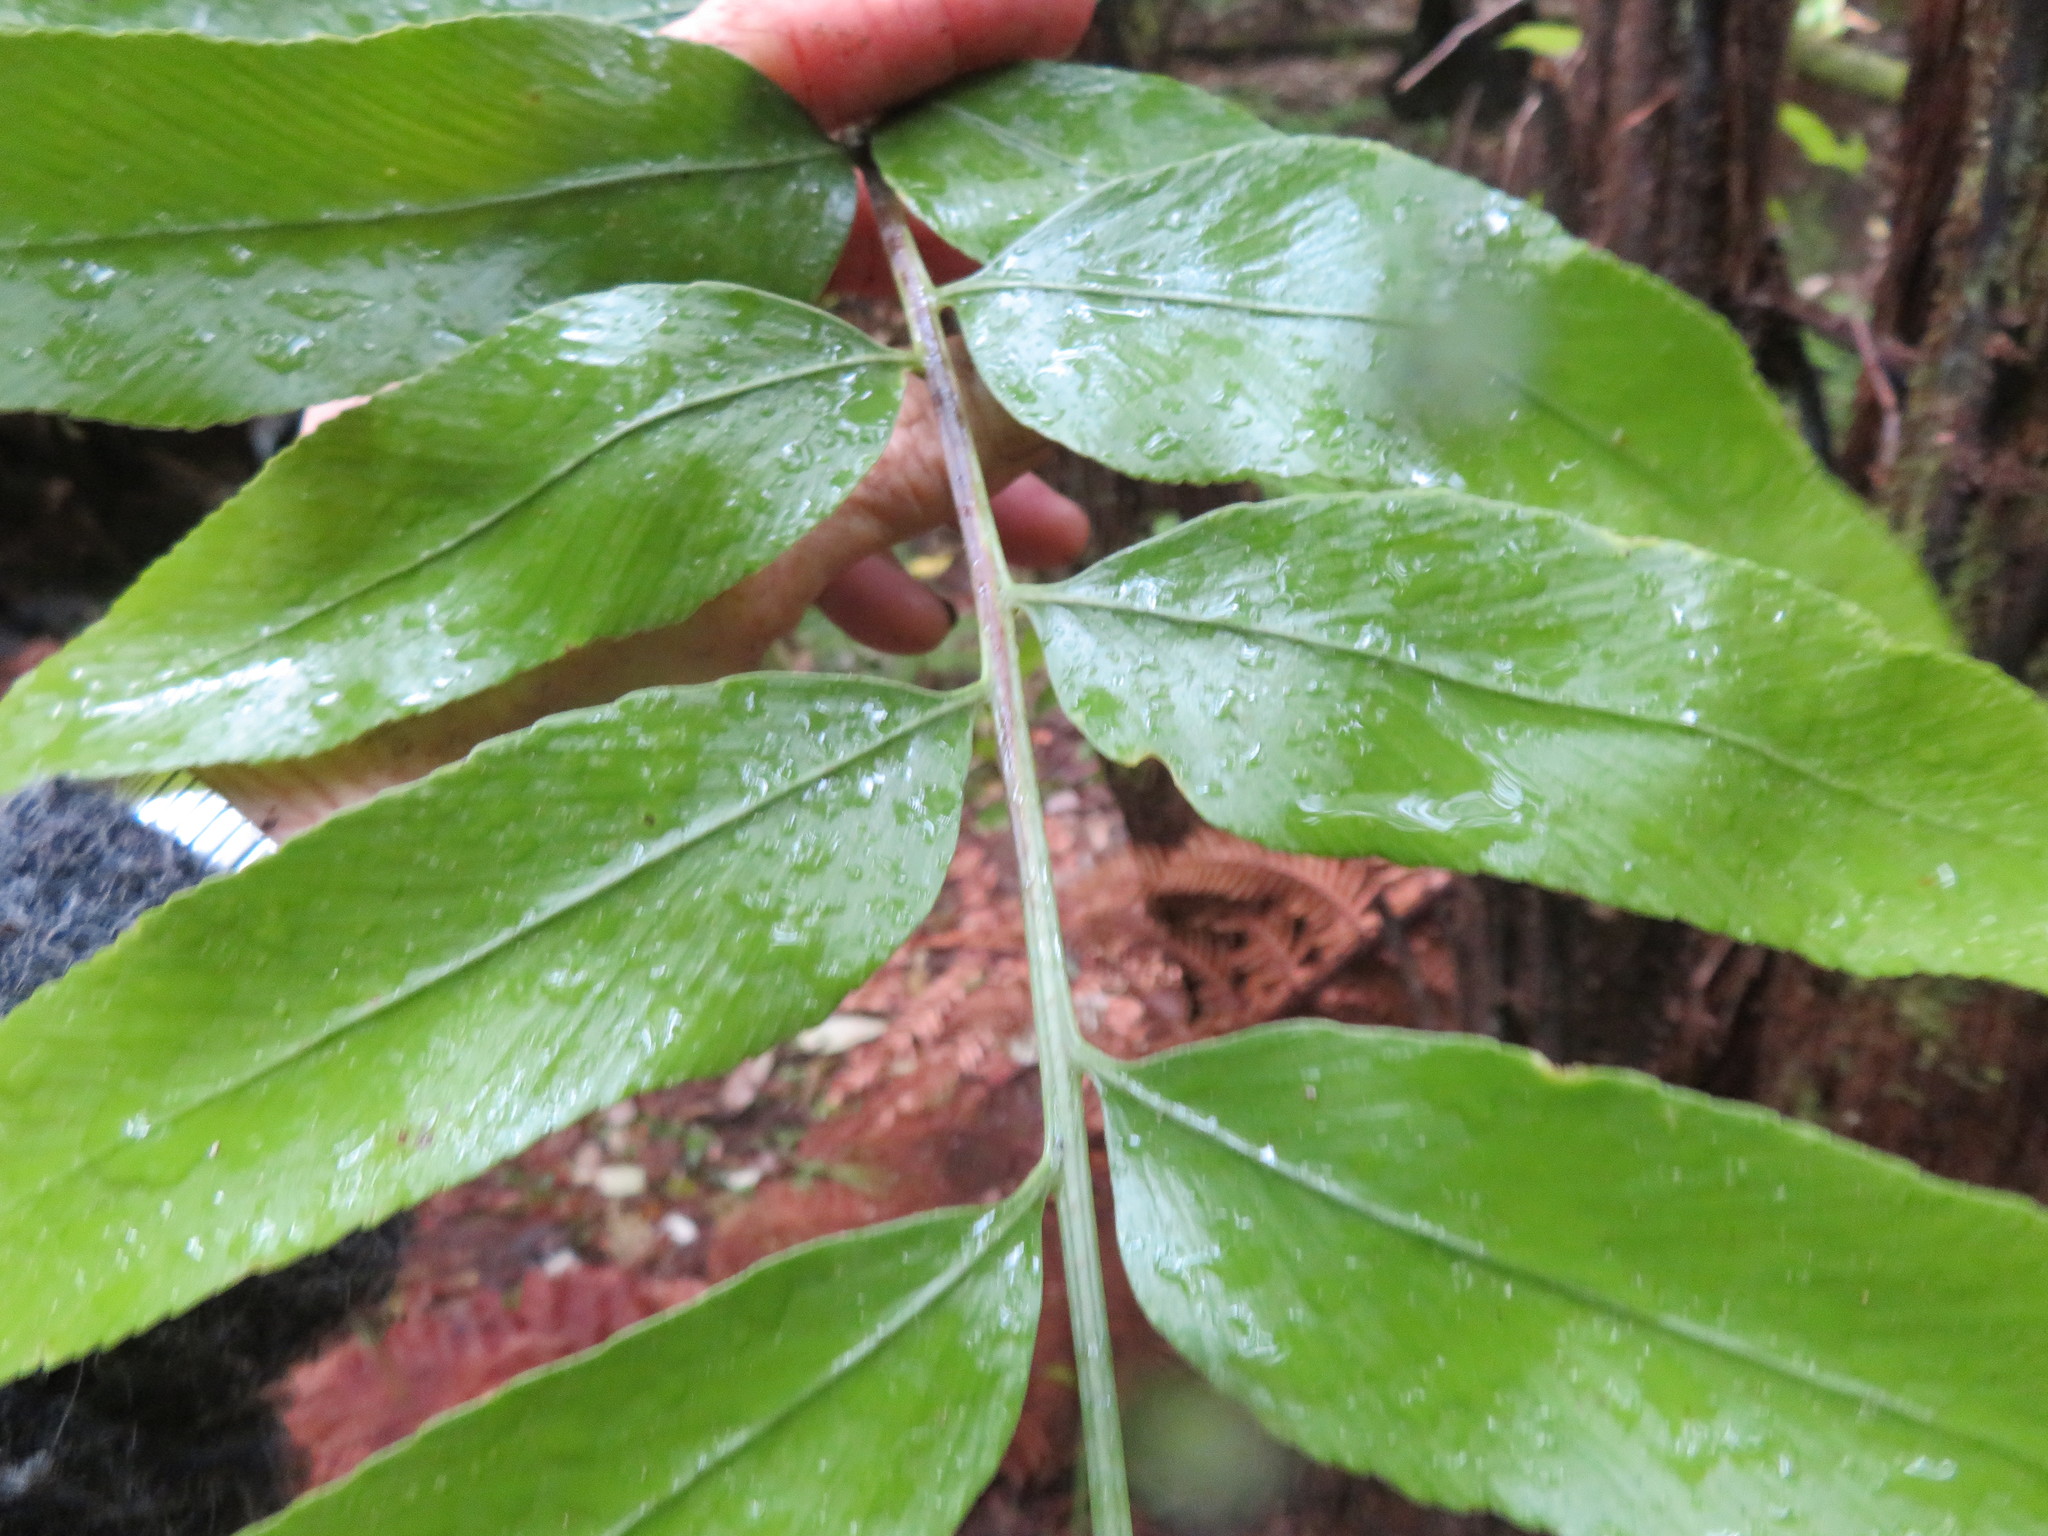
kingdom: Plantae
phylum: Tracheophyta
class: Polypodiopsida
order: Polypodiales
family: Aspleniaceae
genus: Asplenium
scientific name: Asplenium oblongifolium
